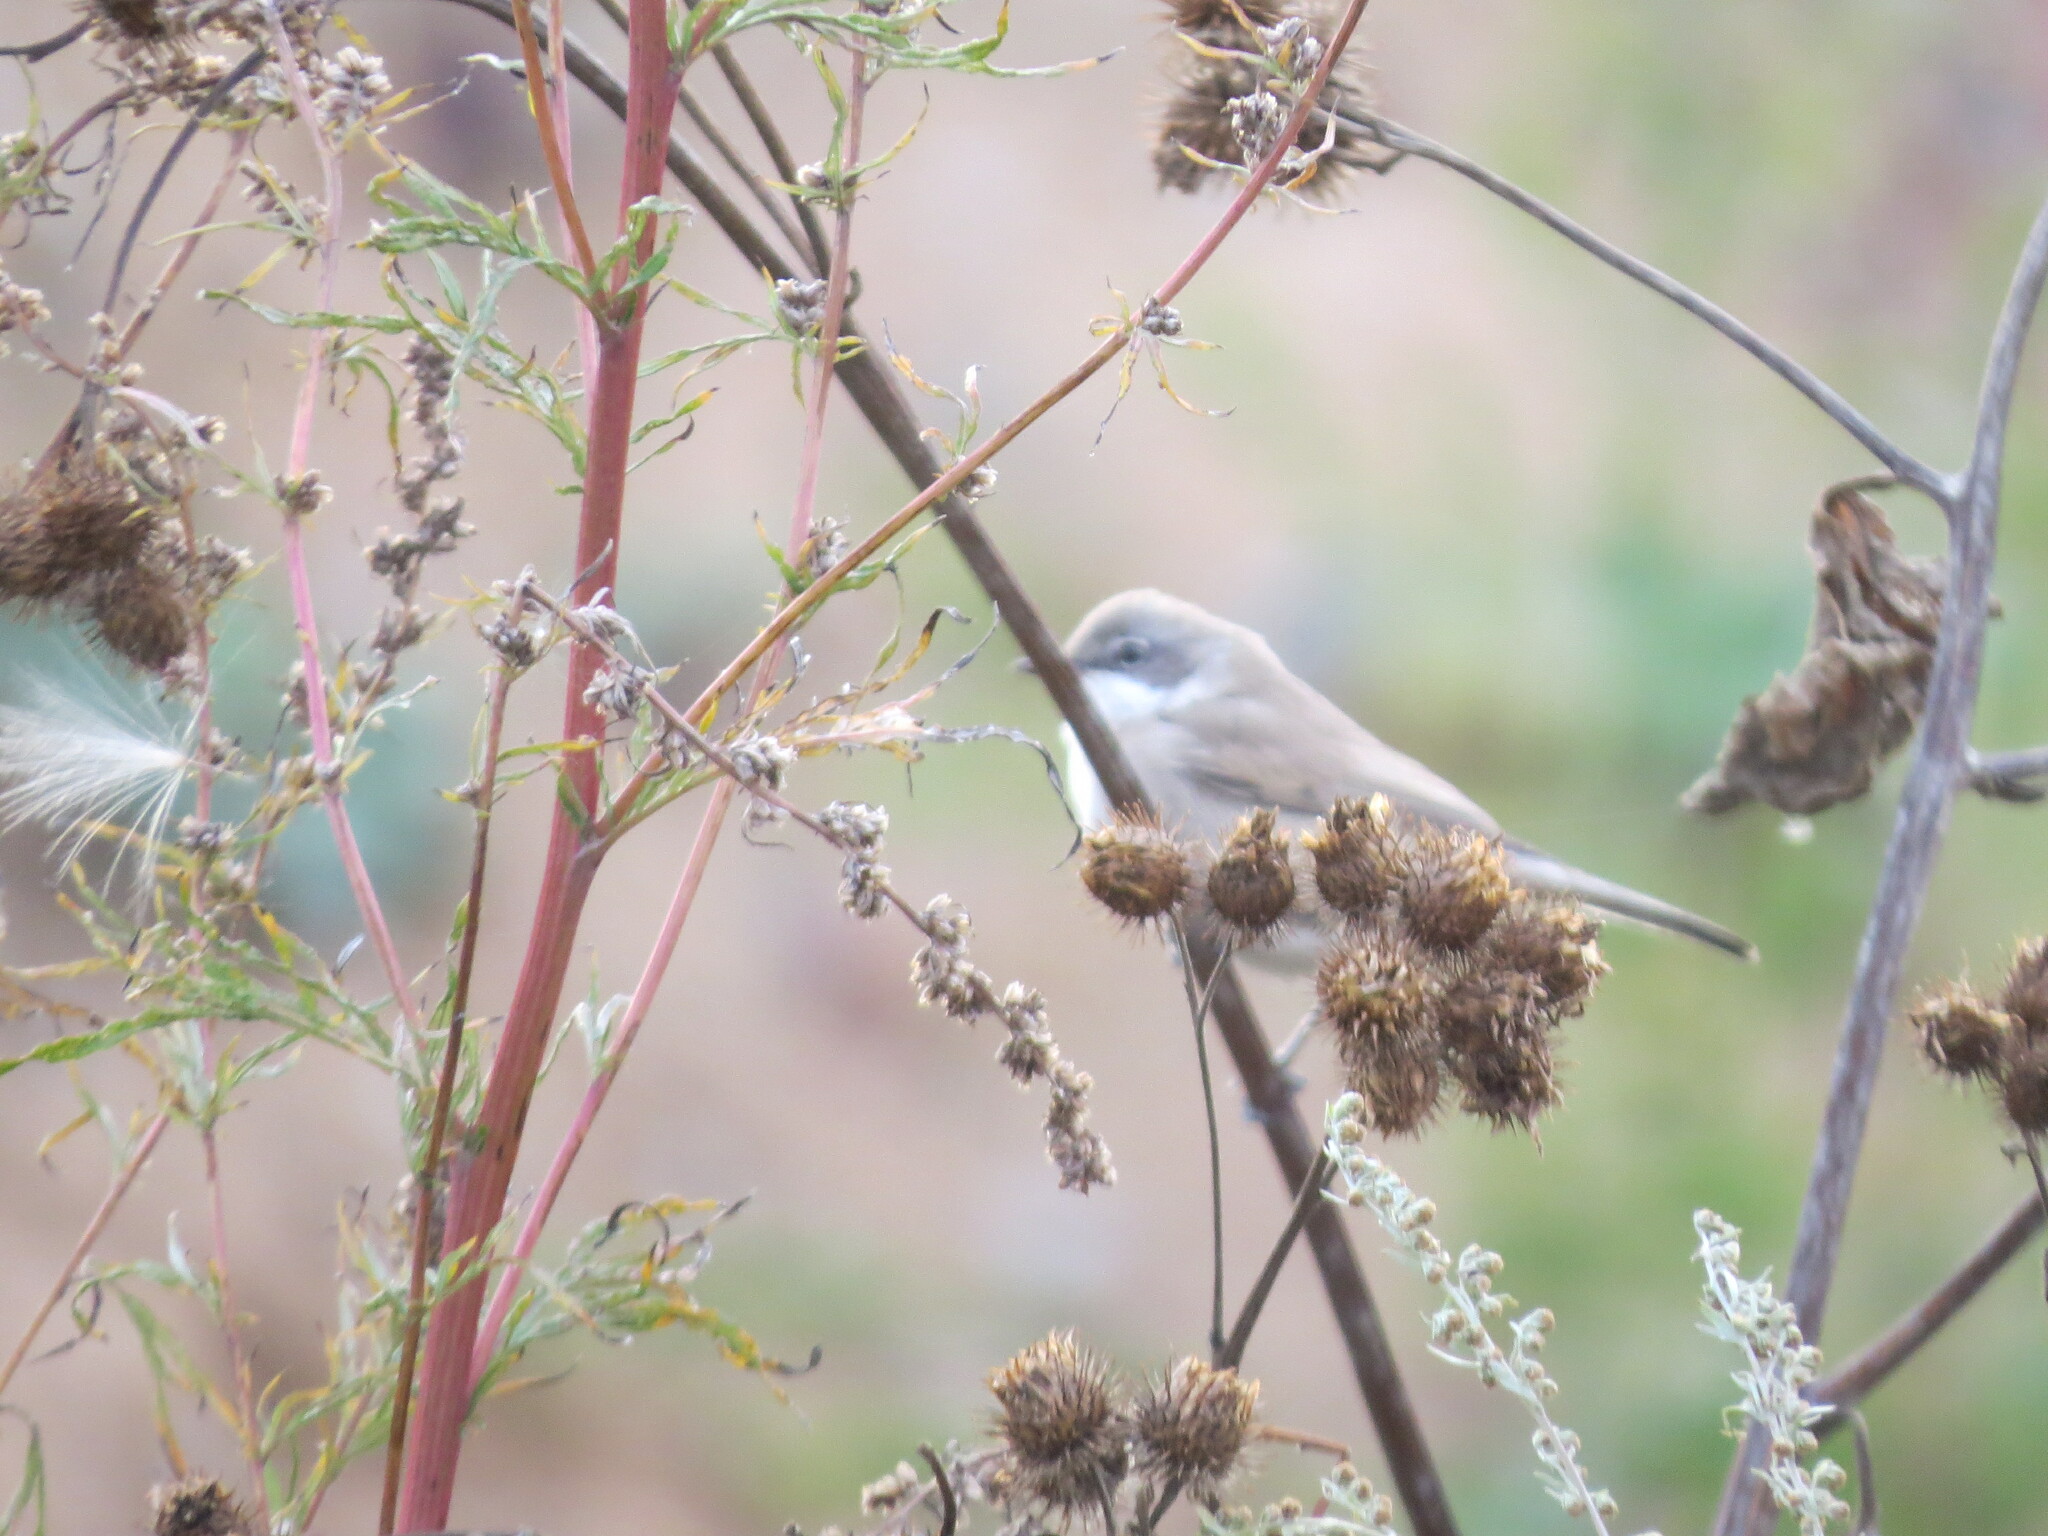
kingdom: Animalia
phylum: Chordata
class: Aves
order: Passeriformes
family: Sylviidae
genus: Sylvia
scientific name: Sylvia curruca
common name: Lesser whitethroat
